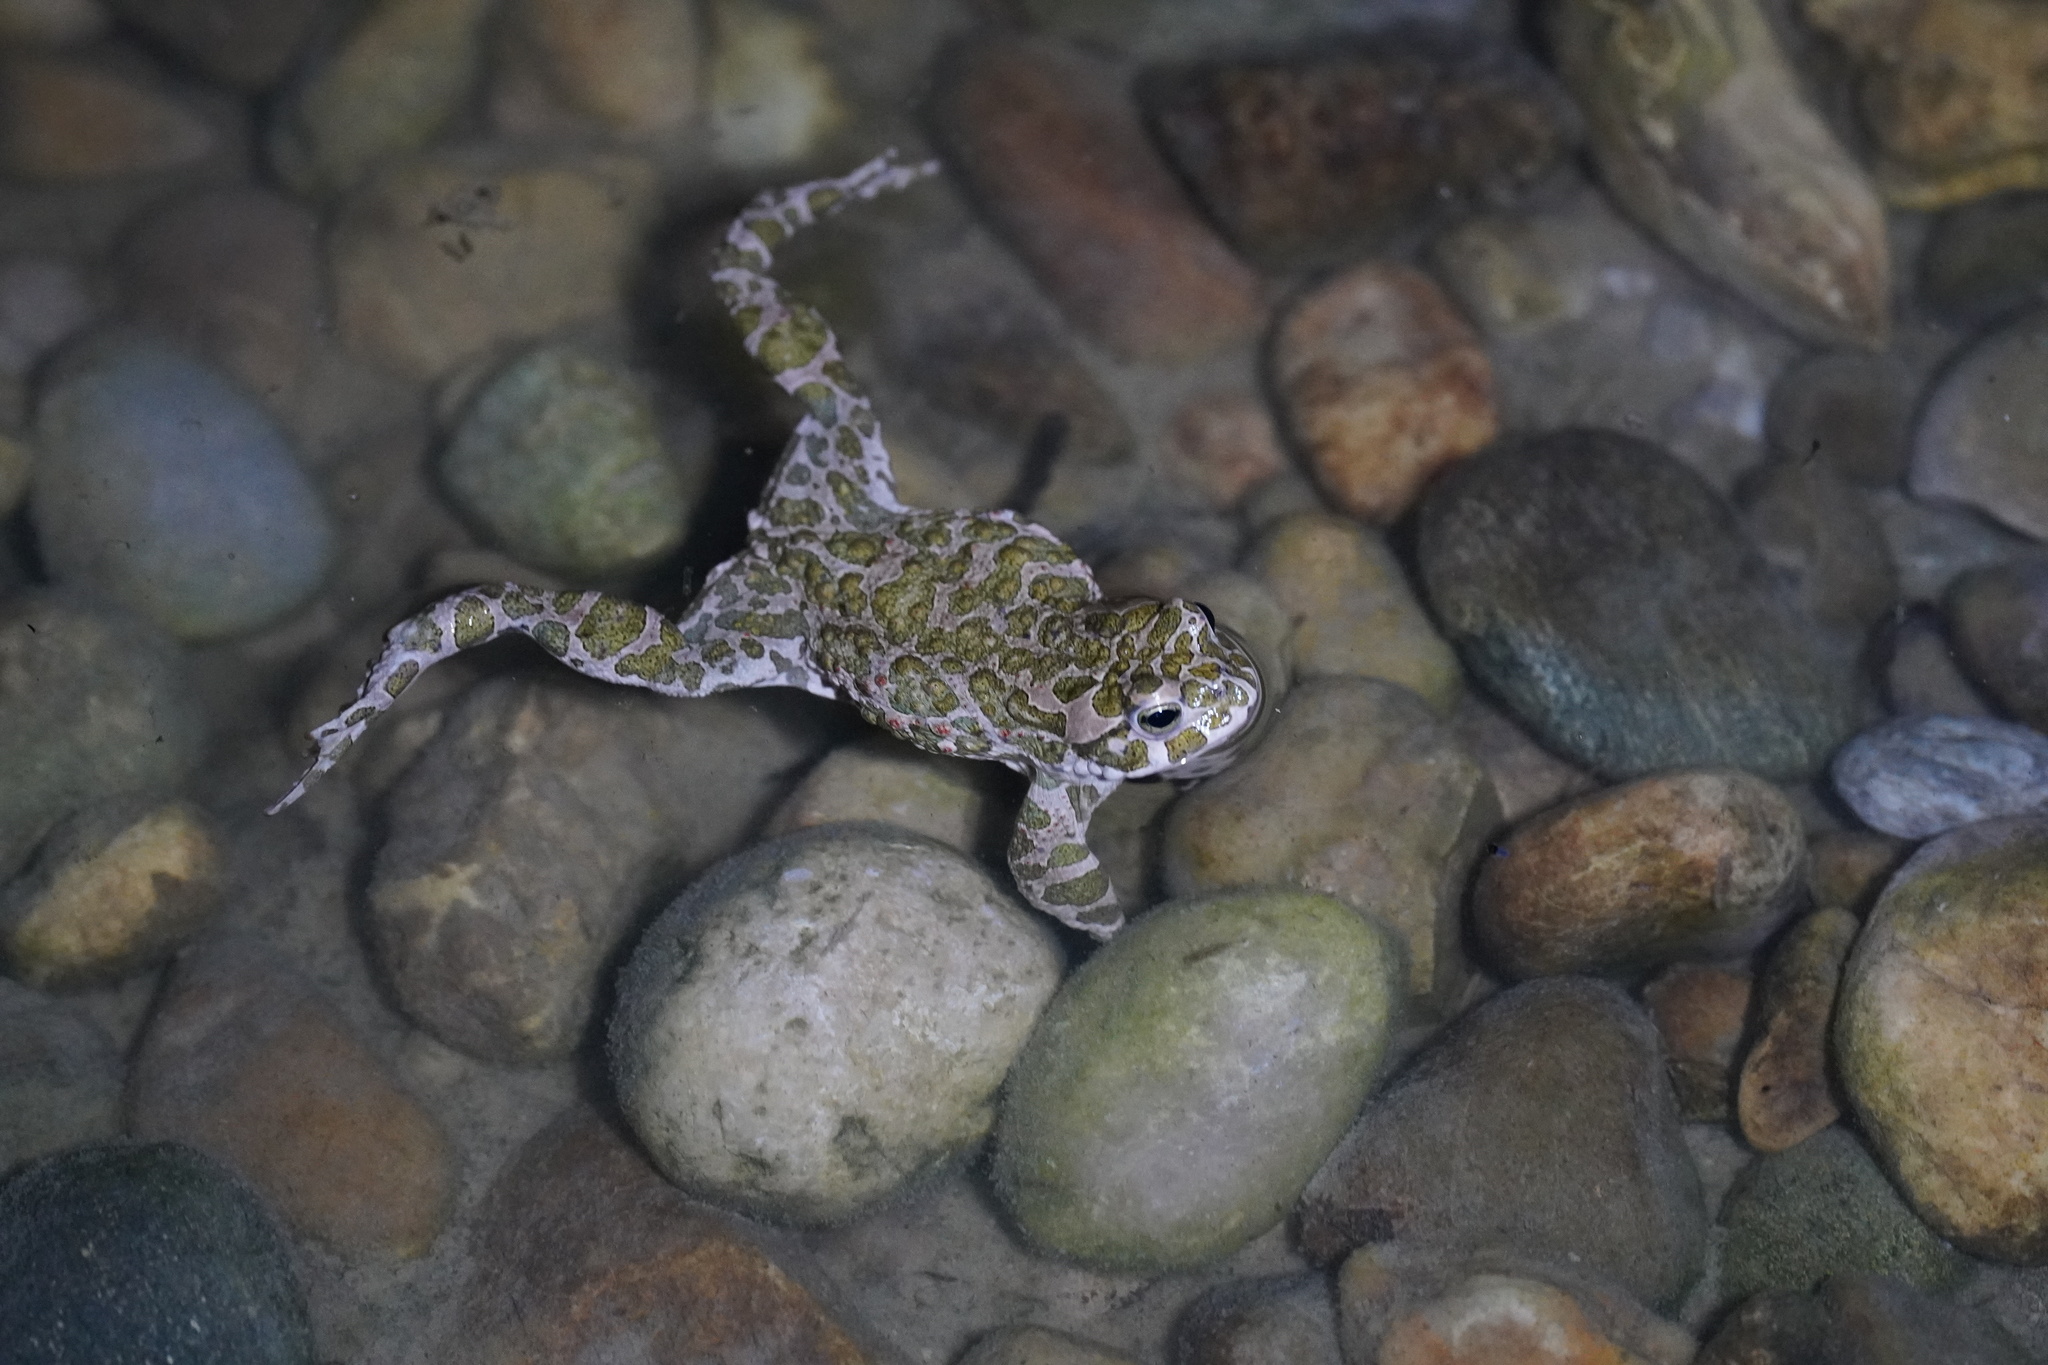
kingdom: Animalia
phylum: Chordata
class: Amphibia
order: Anura
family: Bufonidae
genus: Bufotes
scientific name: Bufotes viridis
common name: European green toad
